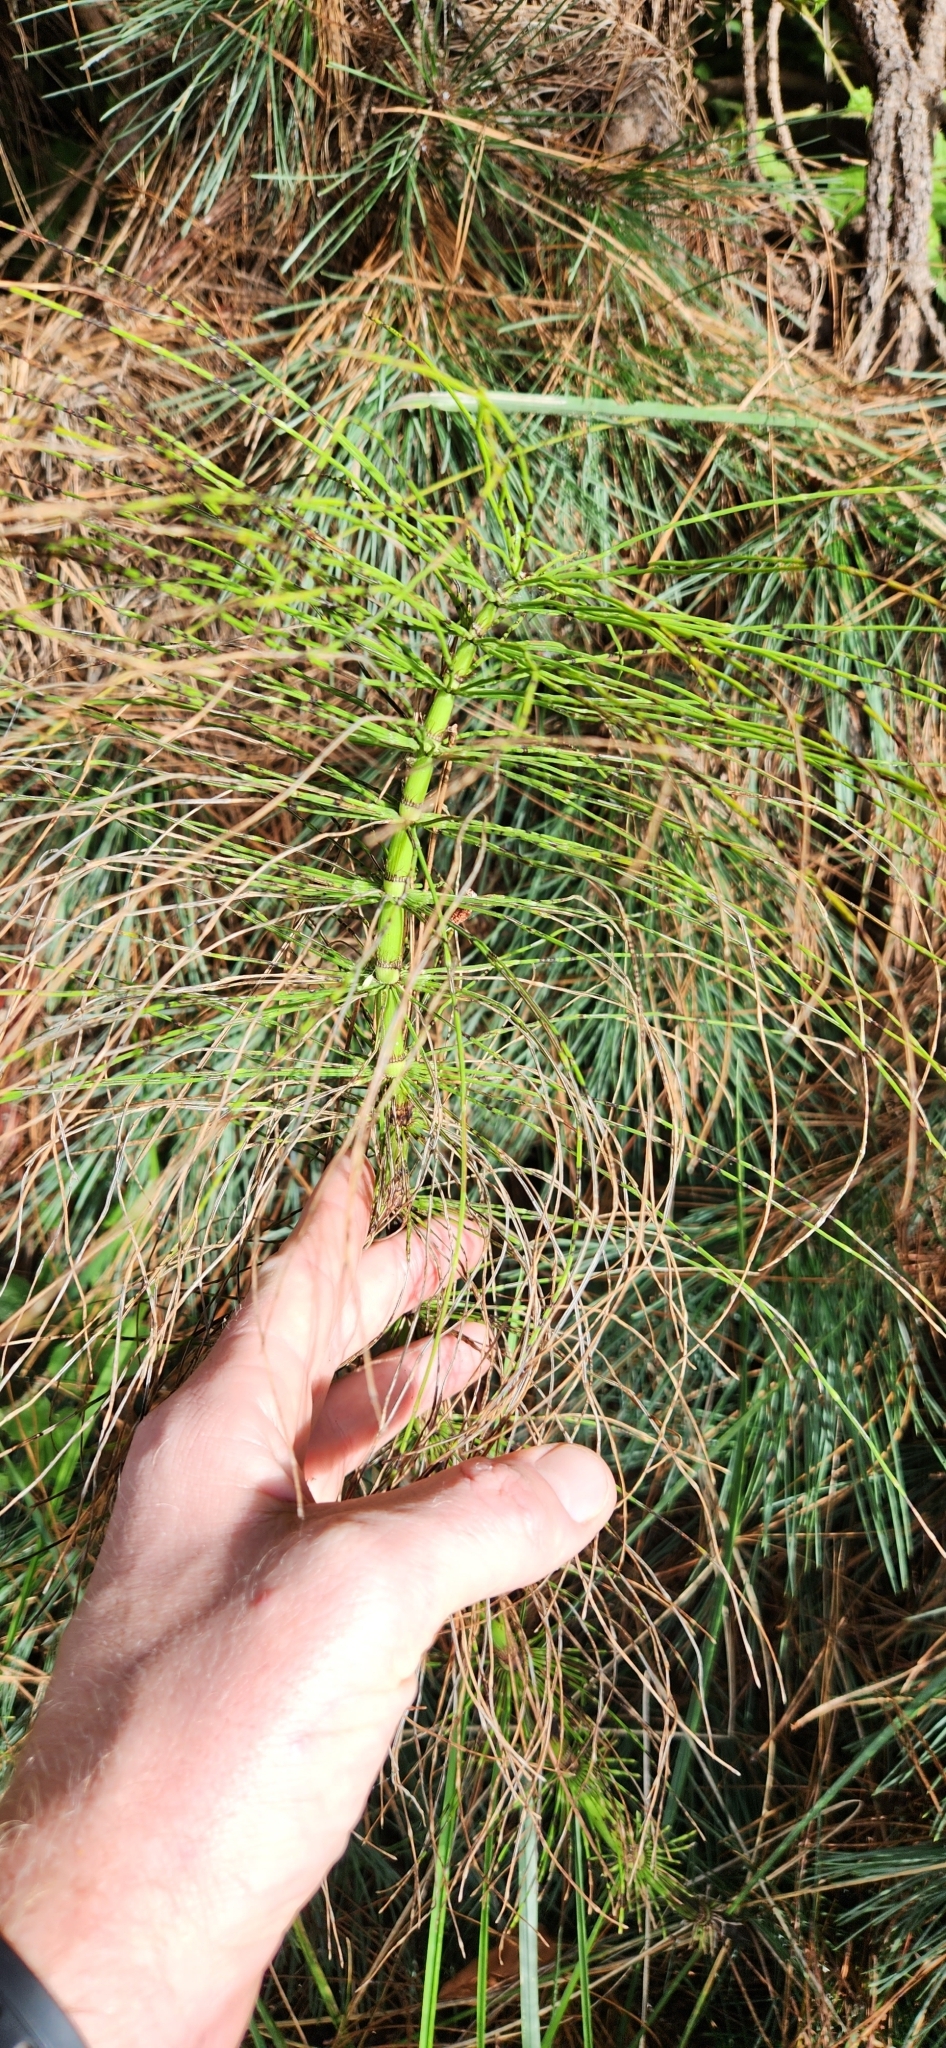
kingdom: Plantae
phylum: Tracheophyta
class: Polypodiopsida
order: Equisetales
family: Equisetaceae
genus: Equisetum
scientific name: Equisetum telmateia
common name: Great horsetail
